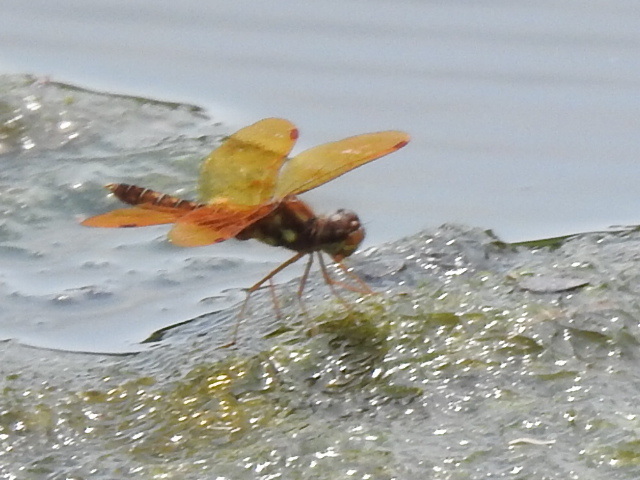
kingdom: Animalia
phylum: Arthropoda
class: Insecta
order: Odonata
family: Libellulidae
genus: Perithemis
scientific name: Perithemis tenera
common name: Eastern amberwing
